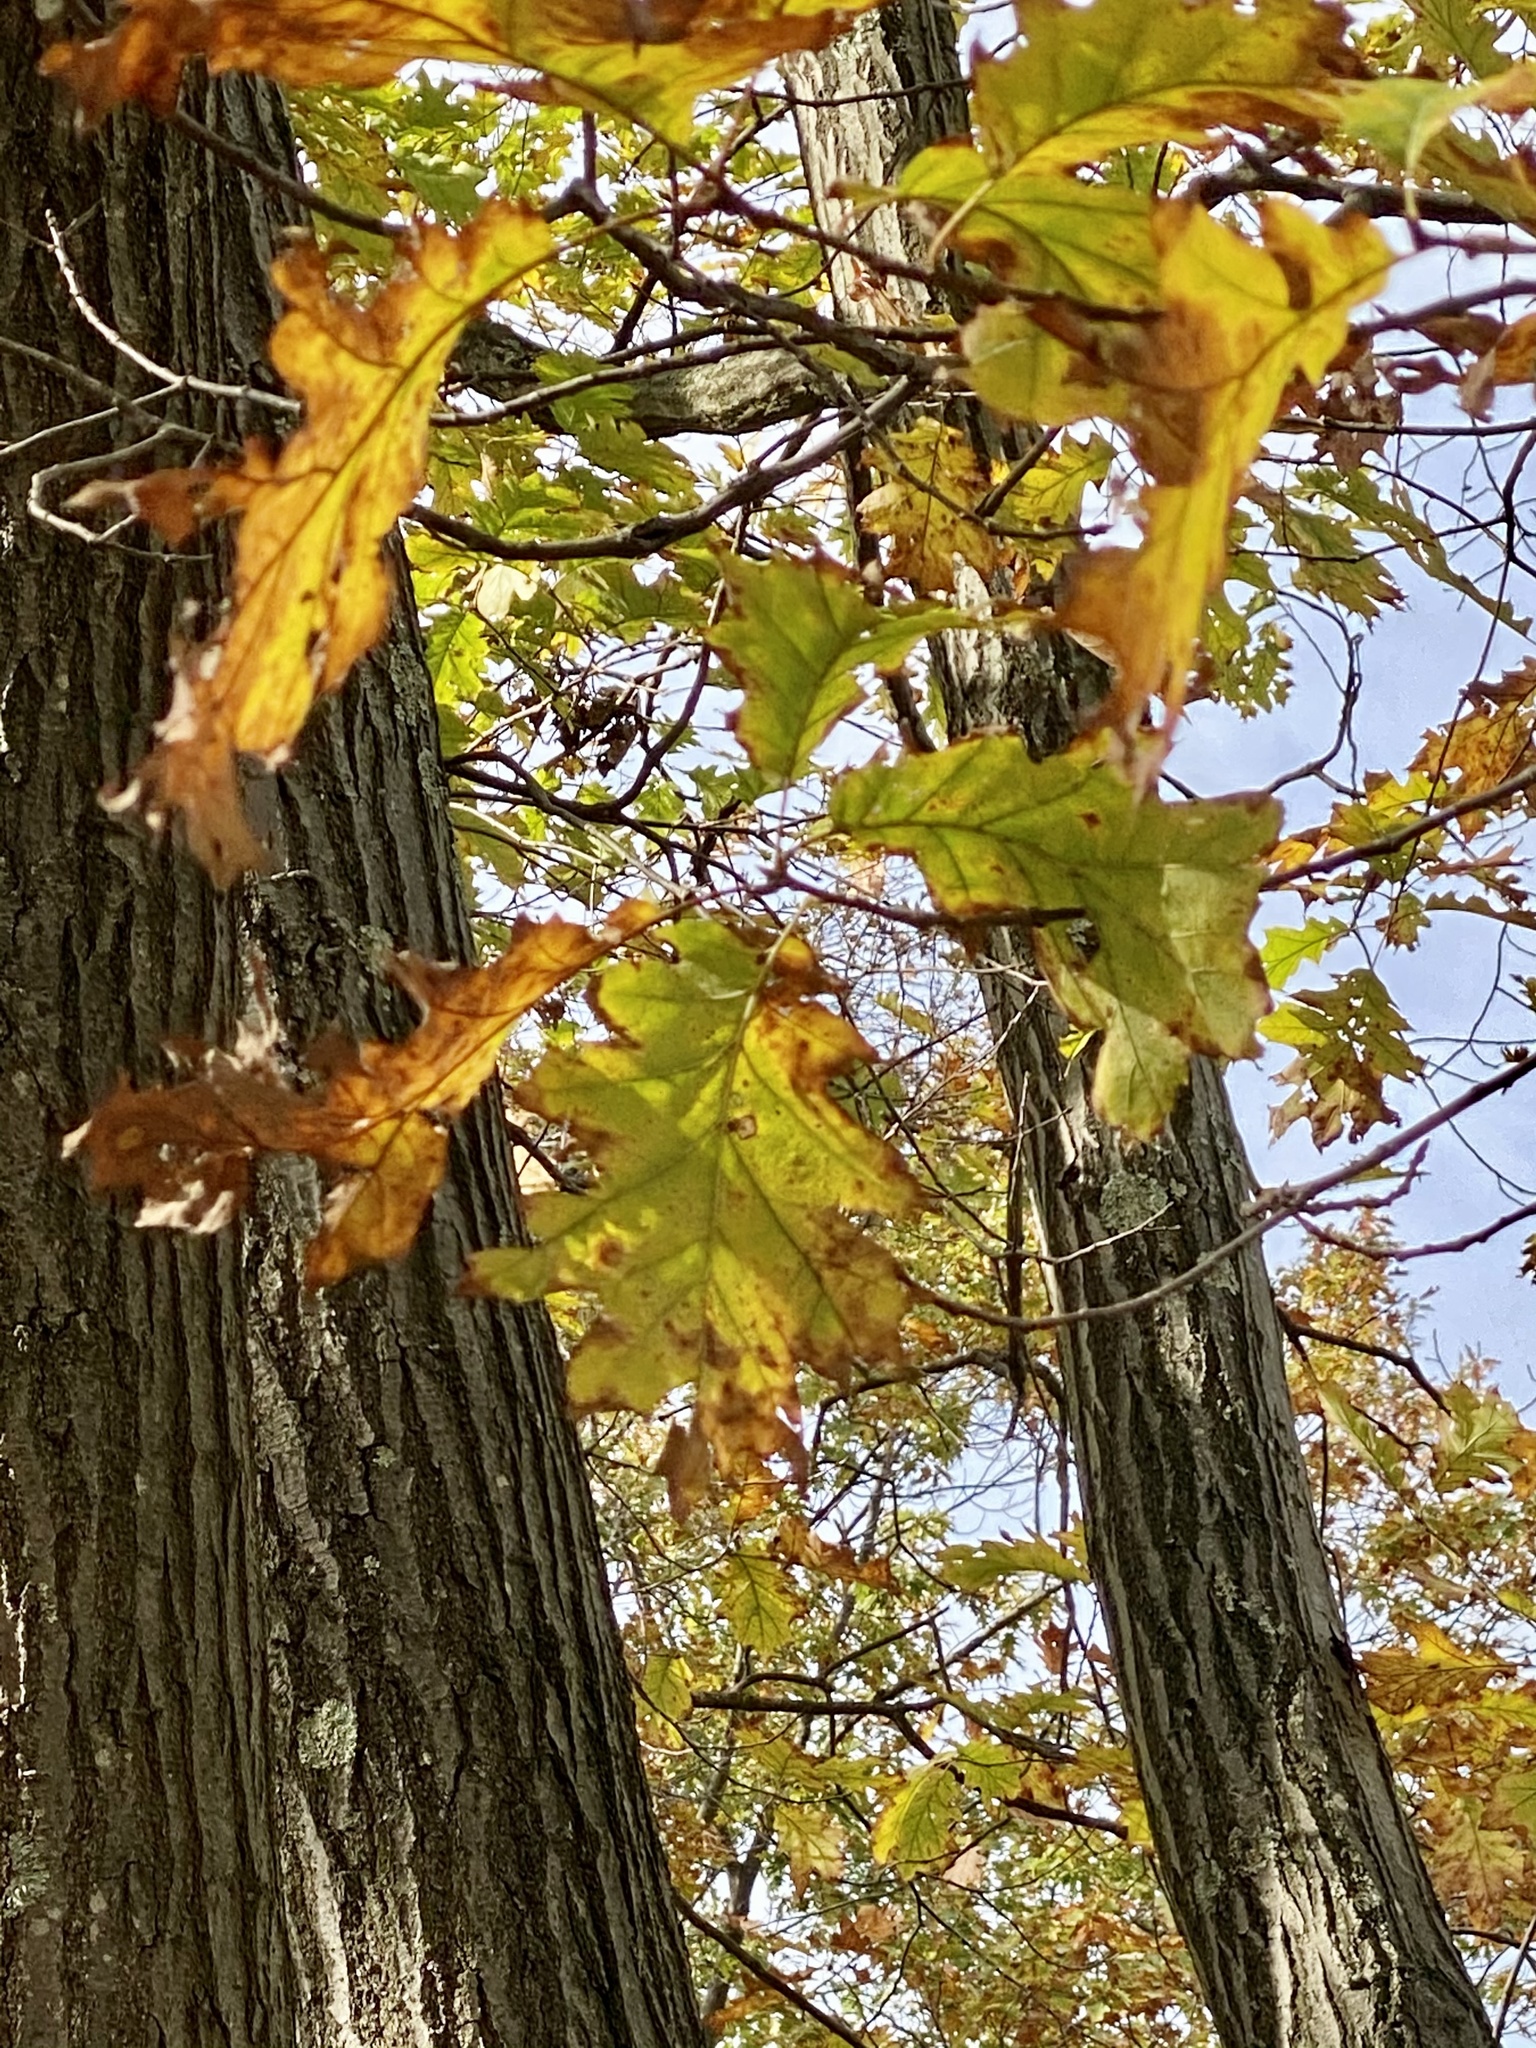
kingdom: Plantae
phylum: Tracheophyta
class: Magnoliopsida
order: Fagales
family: Fagaceae
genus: Quercus
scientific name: Quercus rubra
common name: Red oak
